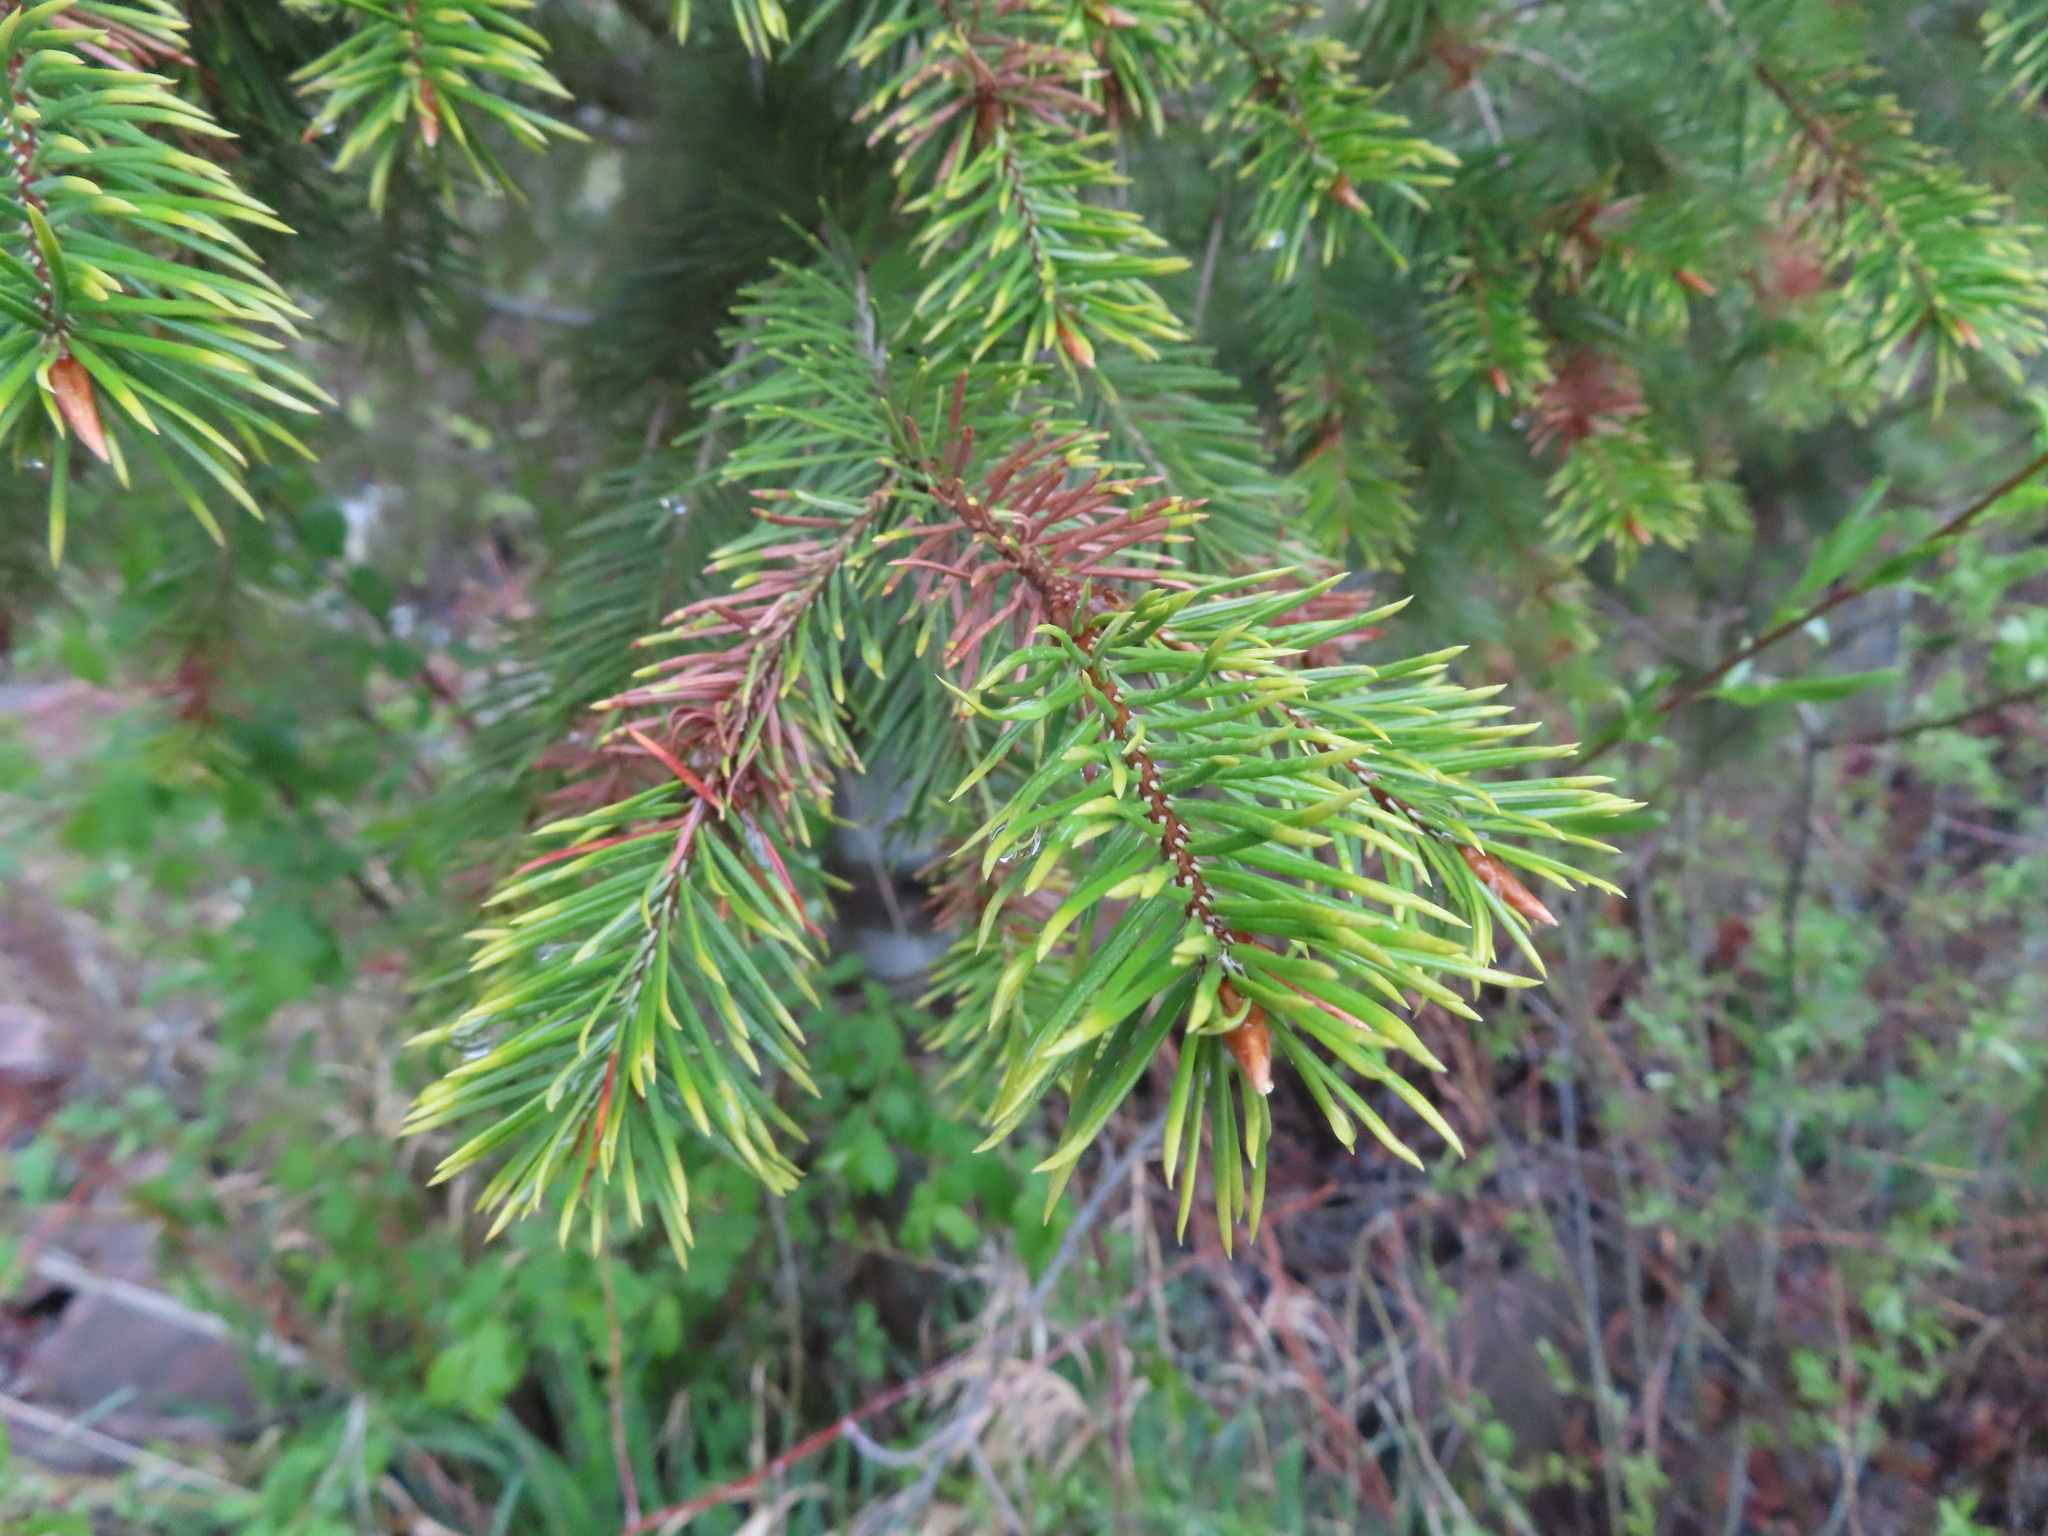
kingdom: Plantae
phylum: Tracheophyta
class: Pinopsida
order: Pinales
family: Pinaceae
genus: Pseudotsuga
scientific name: Pseudotsuga menziesii
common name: Douglas fir
